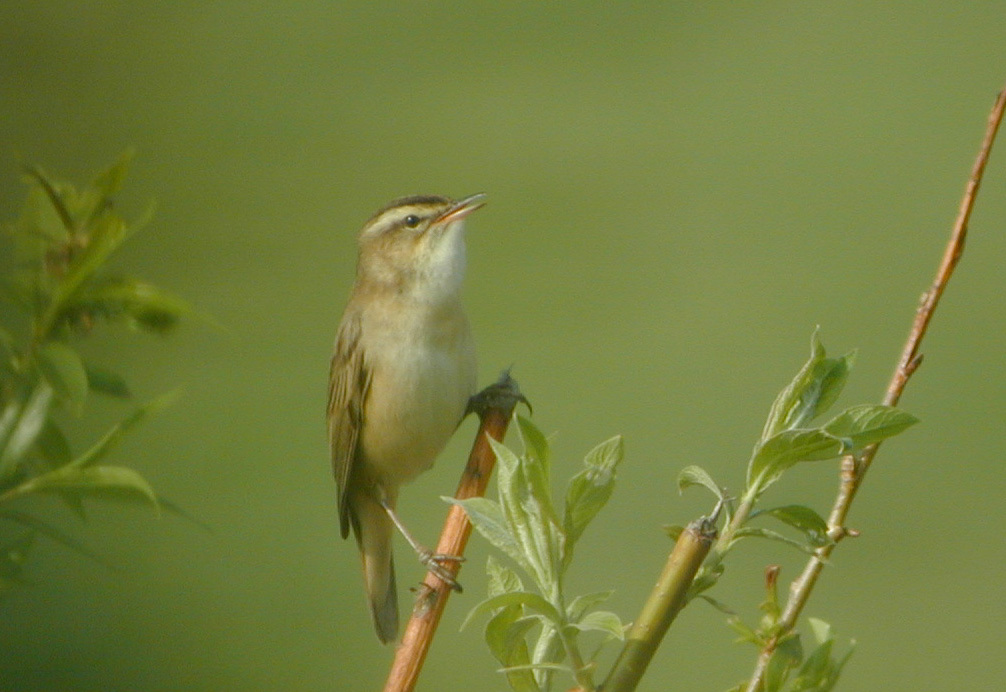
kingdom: Animalia
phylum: Chordata
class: Aves
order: Passeriformes
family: Acrocephalidae
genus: Acrocephalus
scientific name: Acrocephalus schoenobaenus
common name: Sedge warbler
